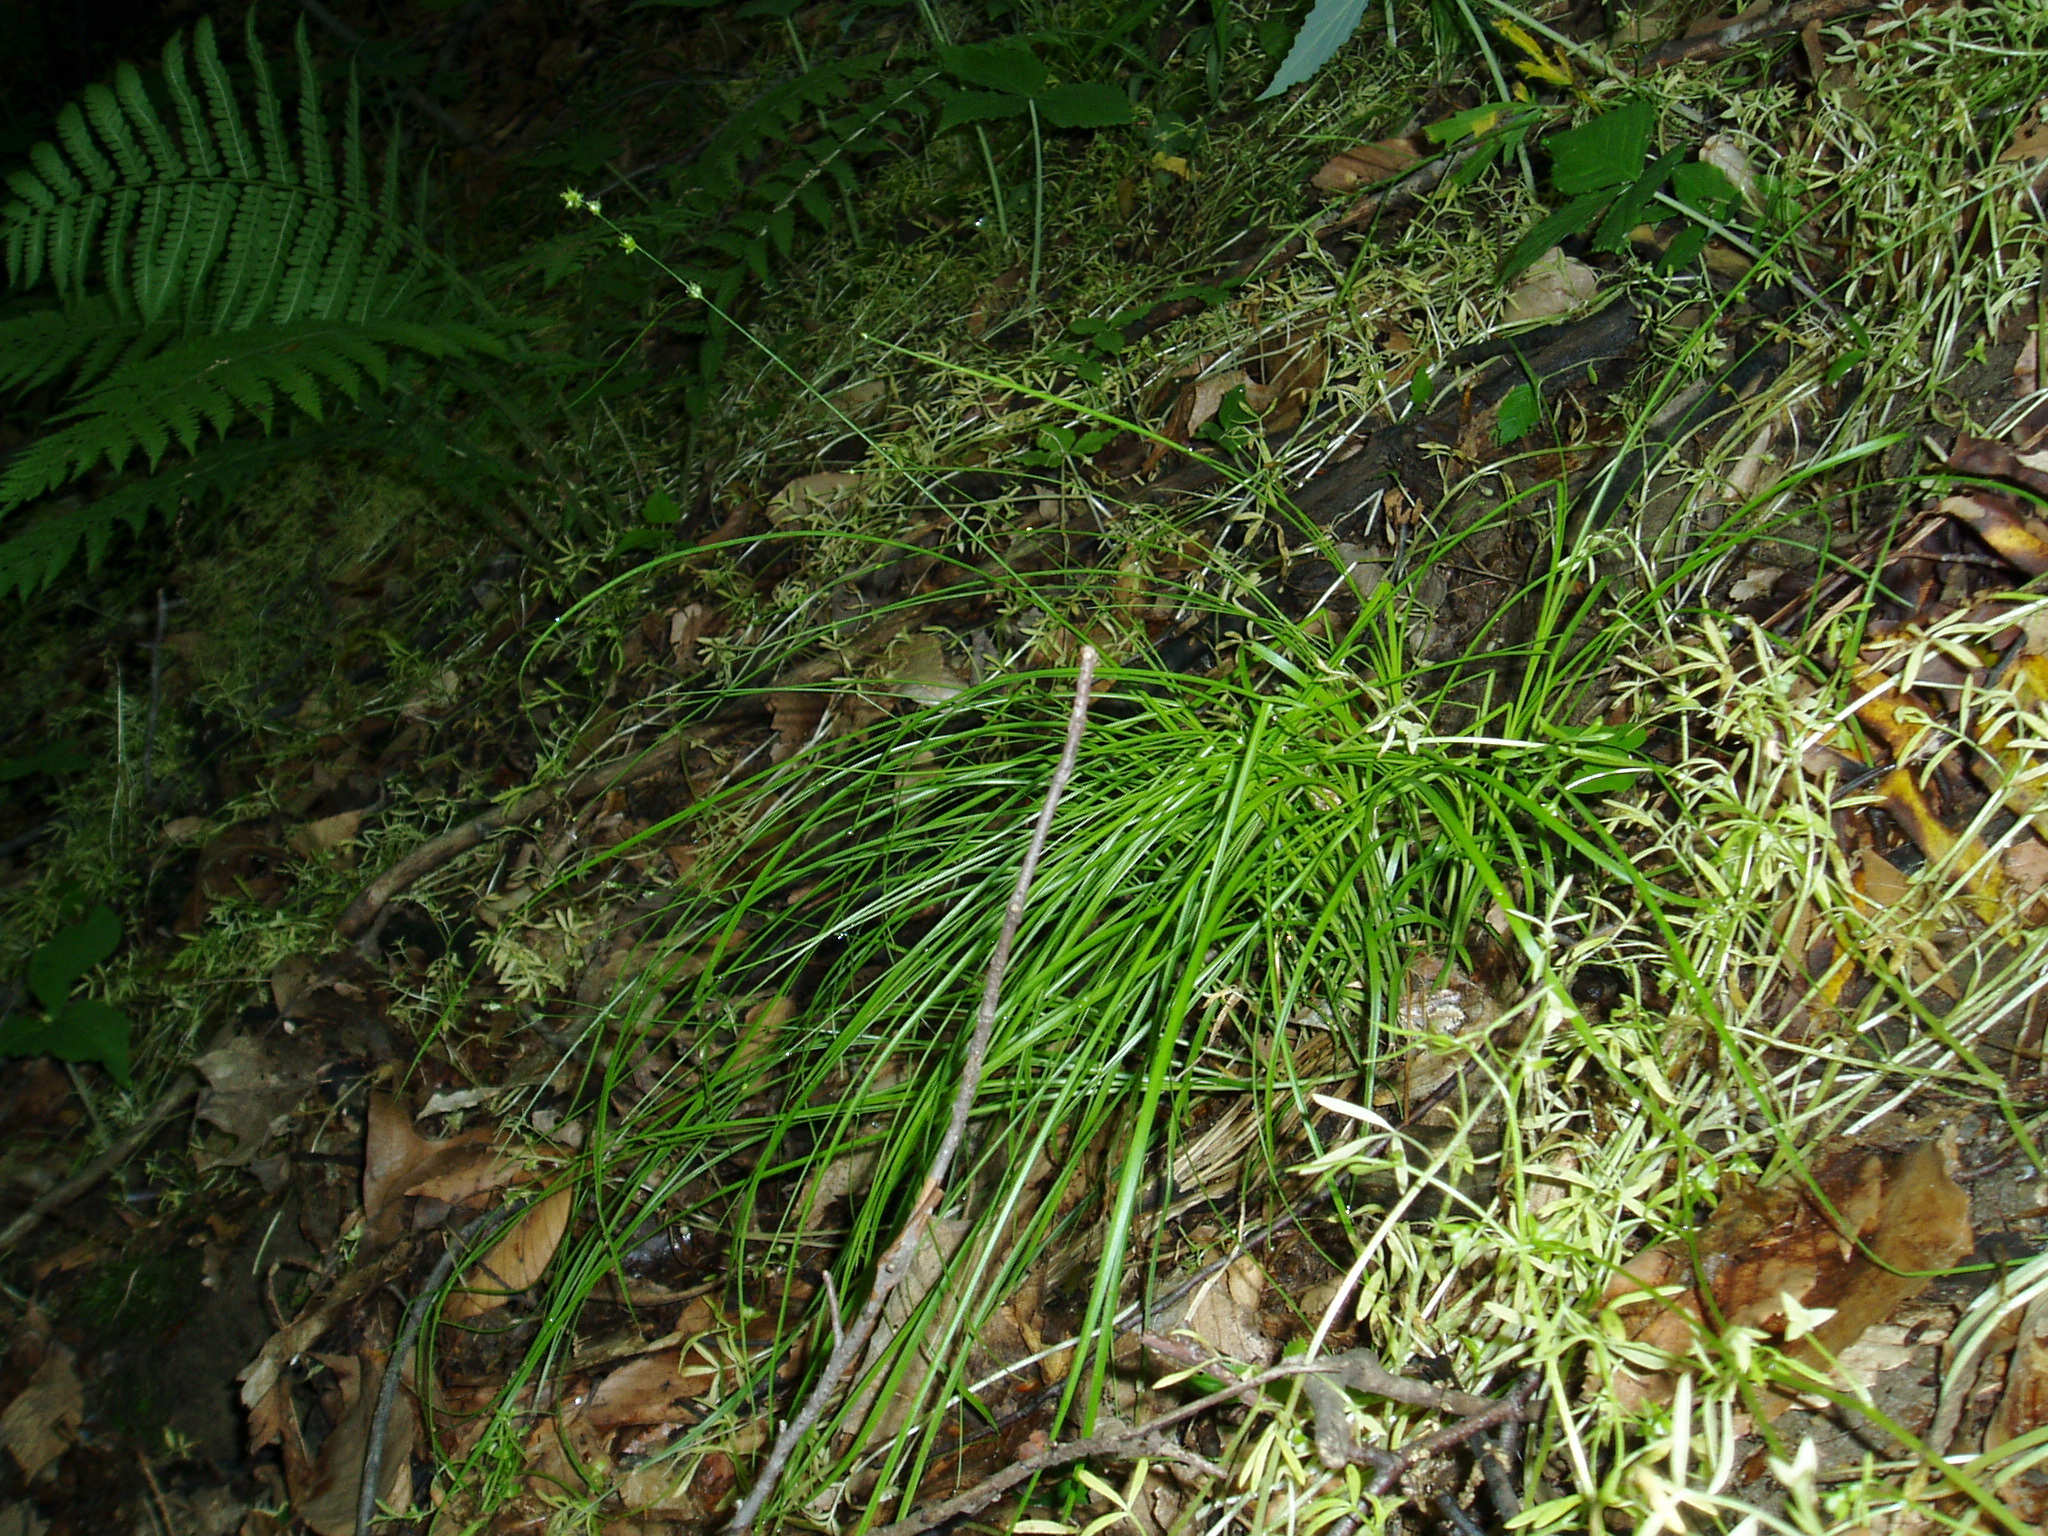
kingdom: Plantae
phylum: Tracheophyta
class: Liliopsida
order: Poales
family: Cyperaceae
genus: Carex
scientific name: Carex rosea
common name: Curly-styled wood sedge
